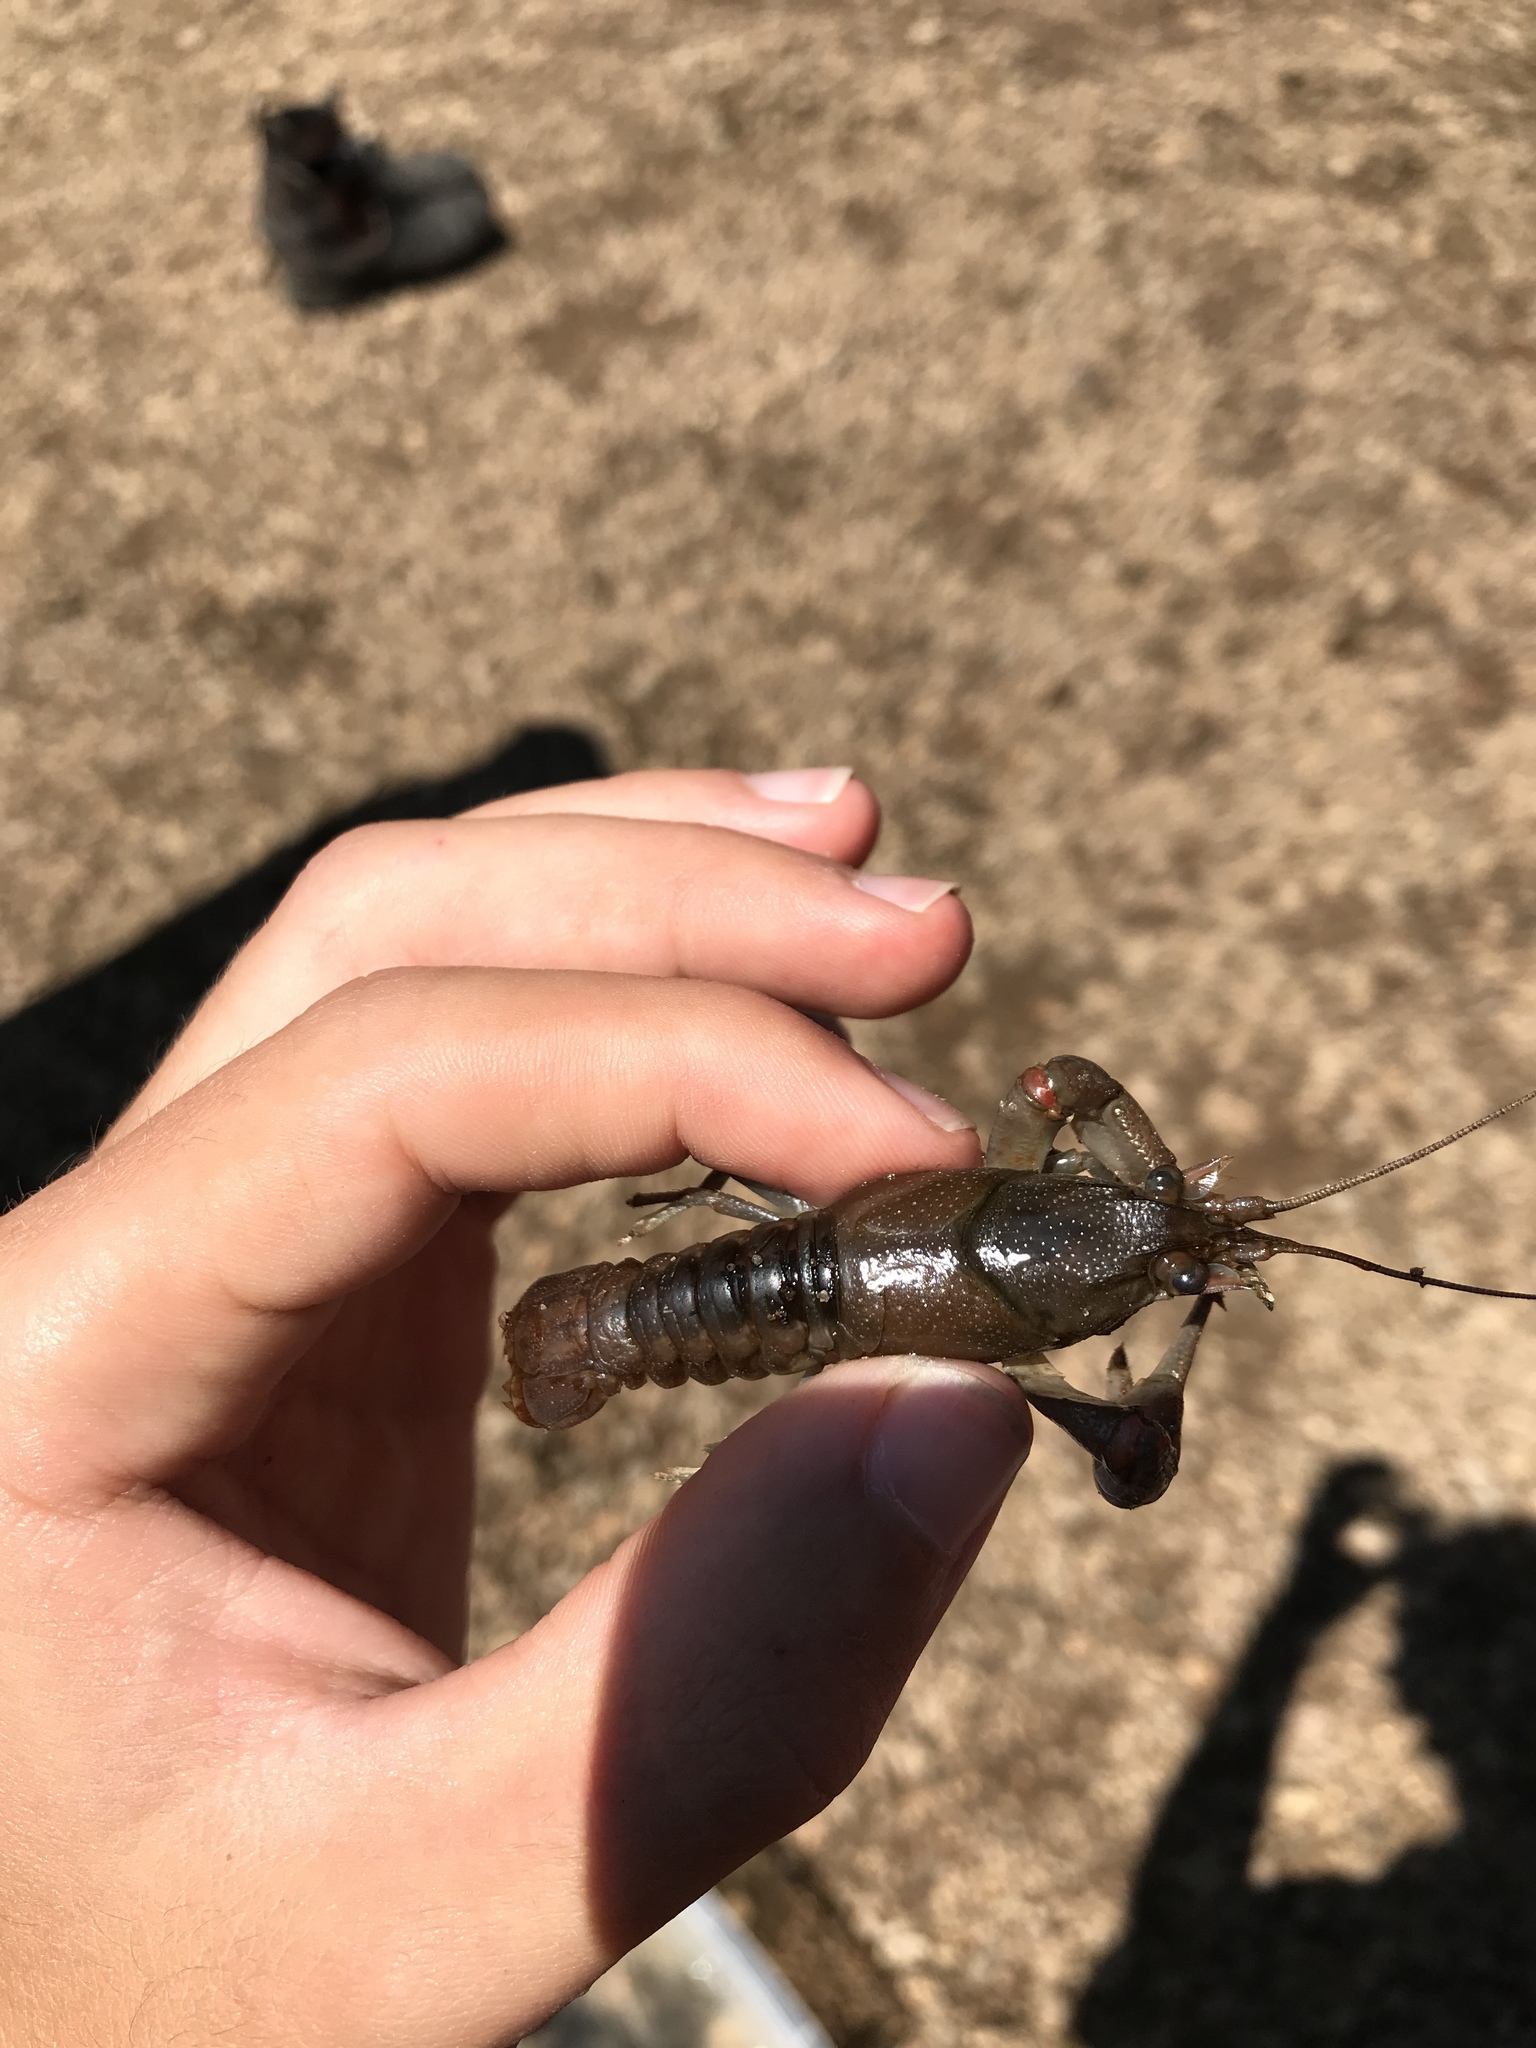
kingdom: Animalia
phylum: Arthropoda
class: Malacostraca
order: Decapoda
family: Cambaridae
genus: Faxonius
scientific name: Faxonius propinquus
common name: Northern clearwater crayfish
